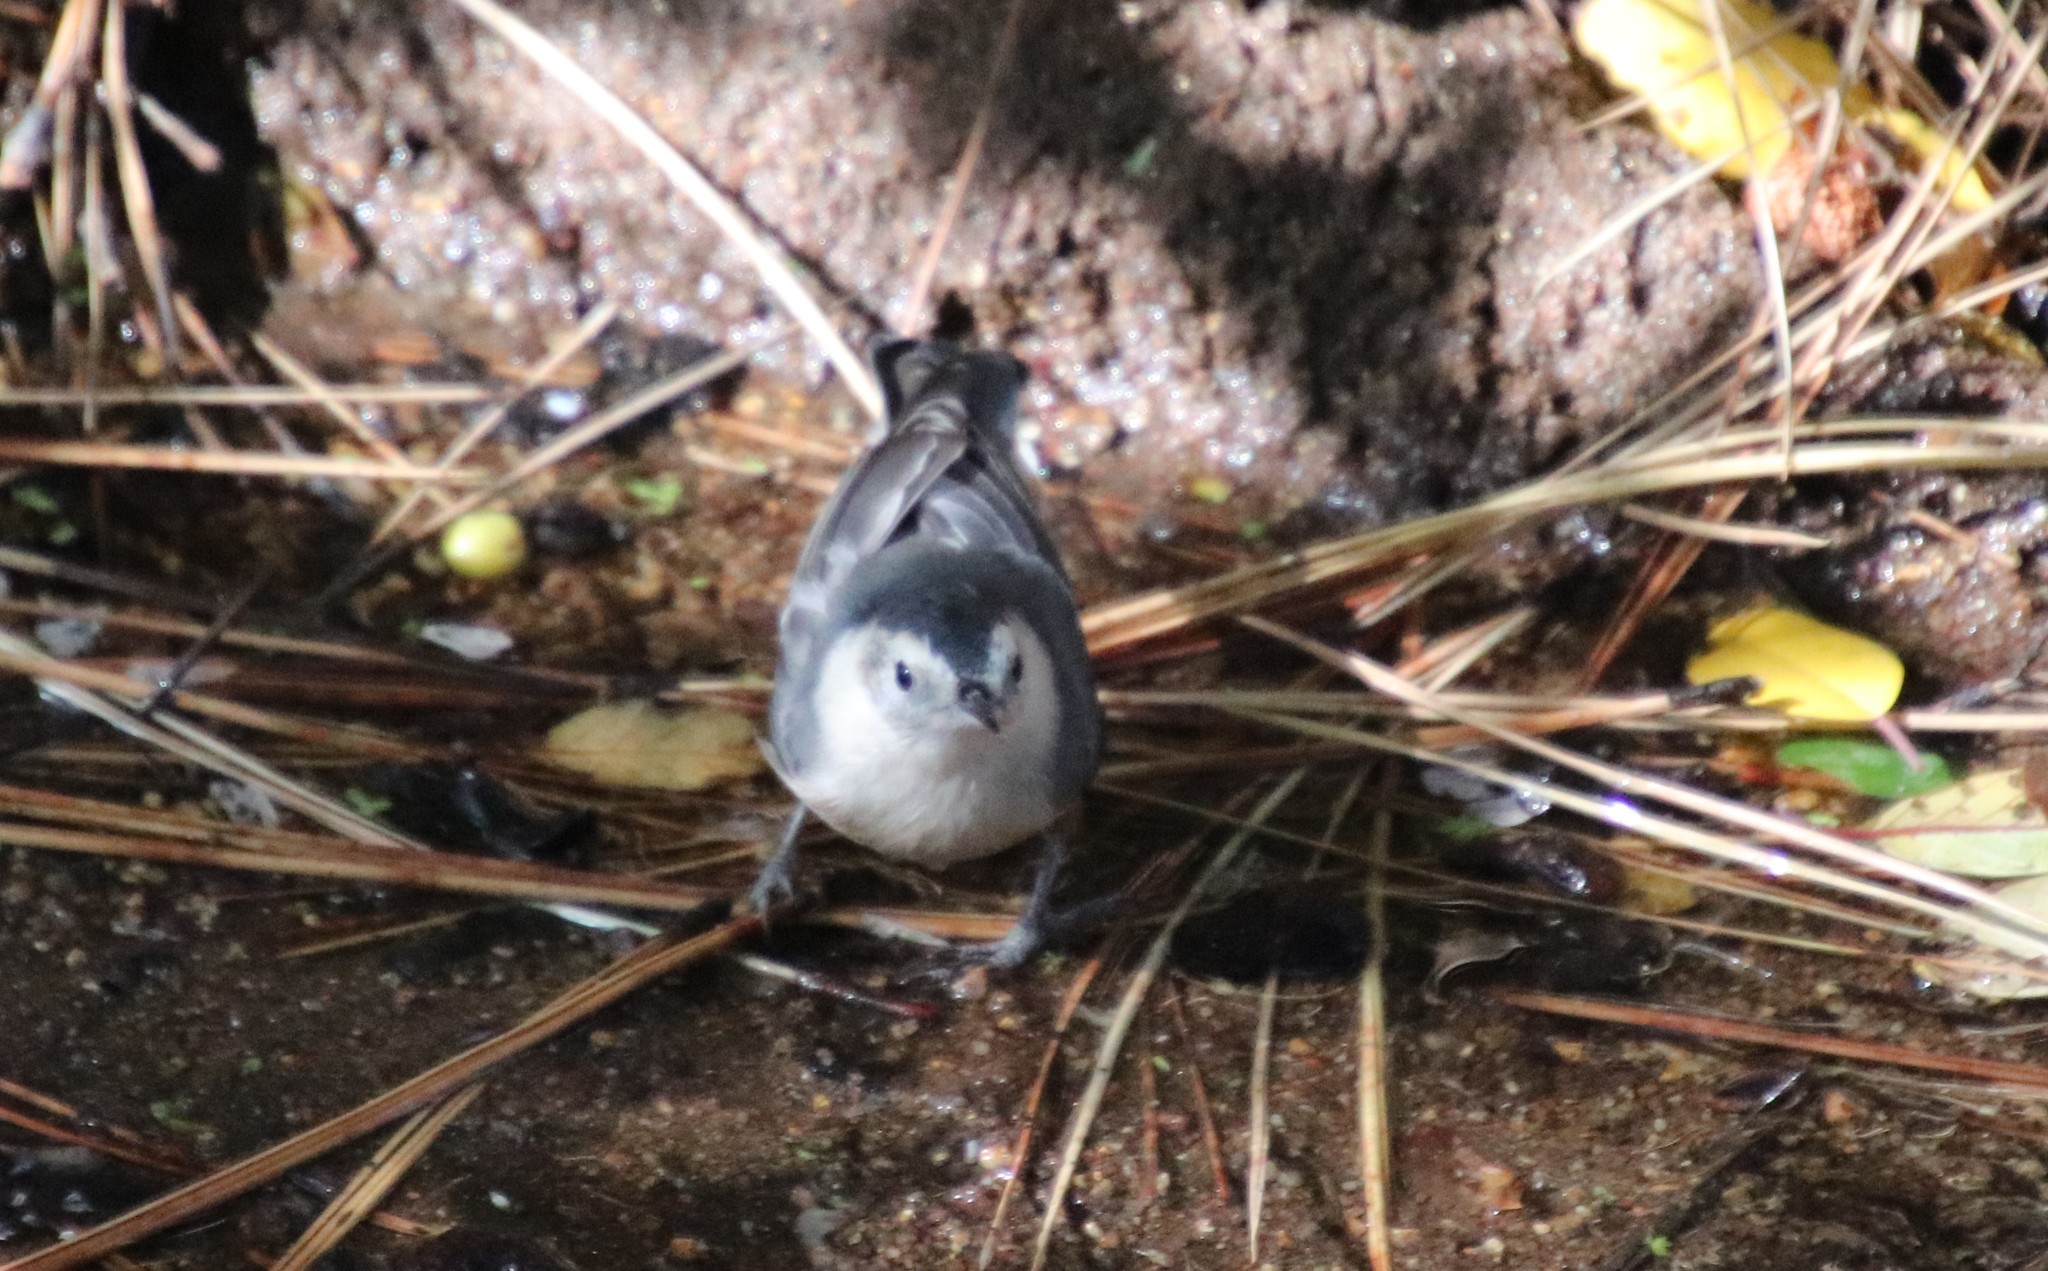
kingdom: Animalia
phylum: Chordata
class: Aves
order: Passeriformes
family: Sittidae
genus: Sitta
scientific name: Sitta carolinensis
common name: White-breasted nuthatch
